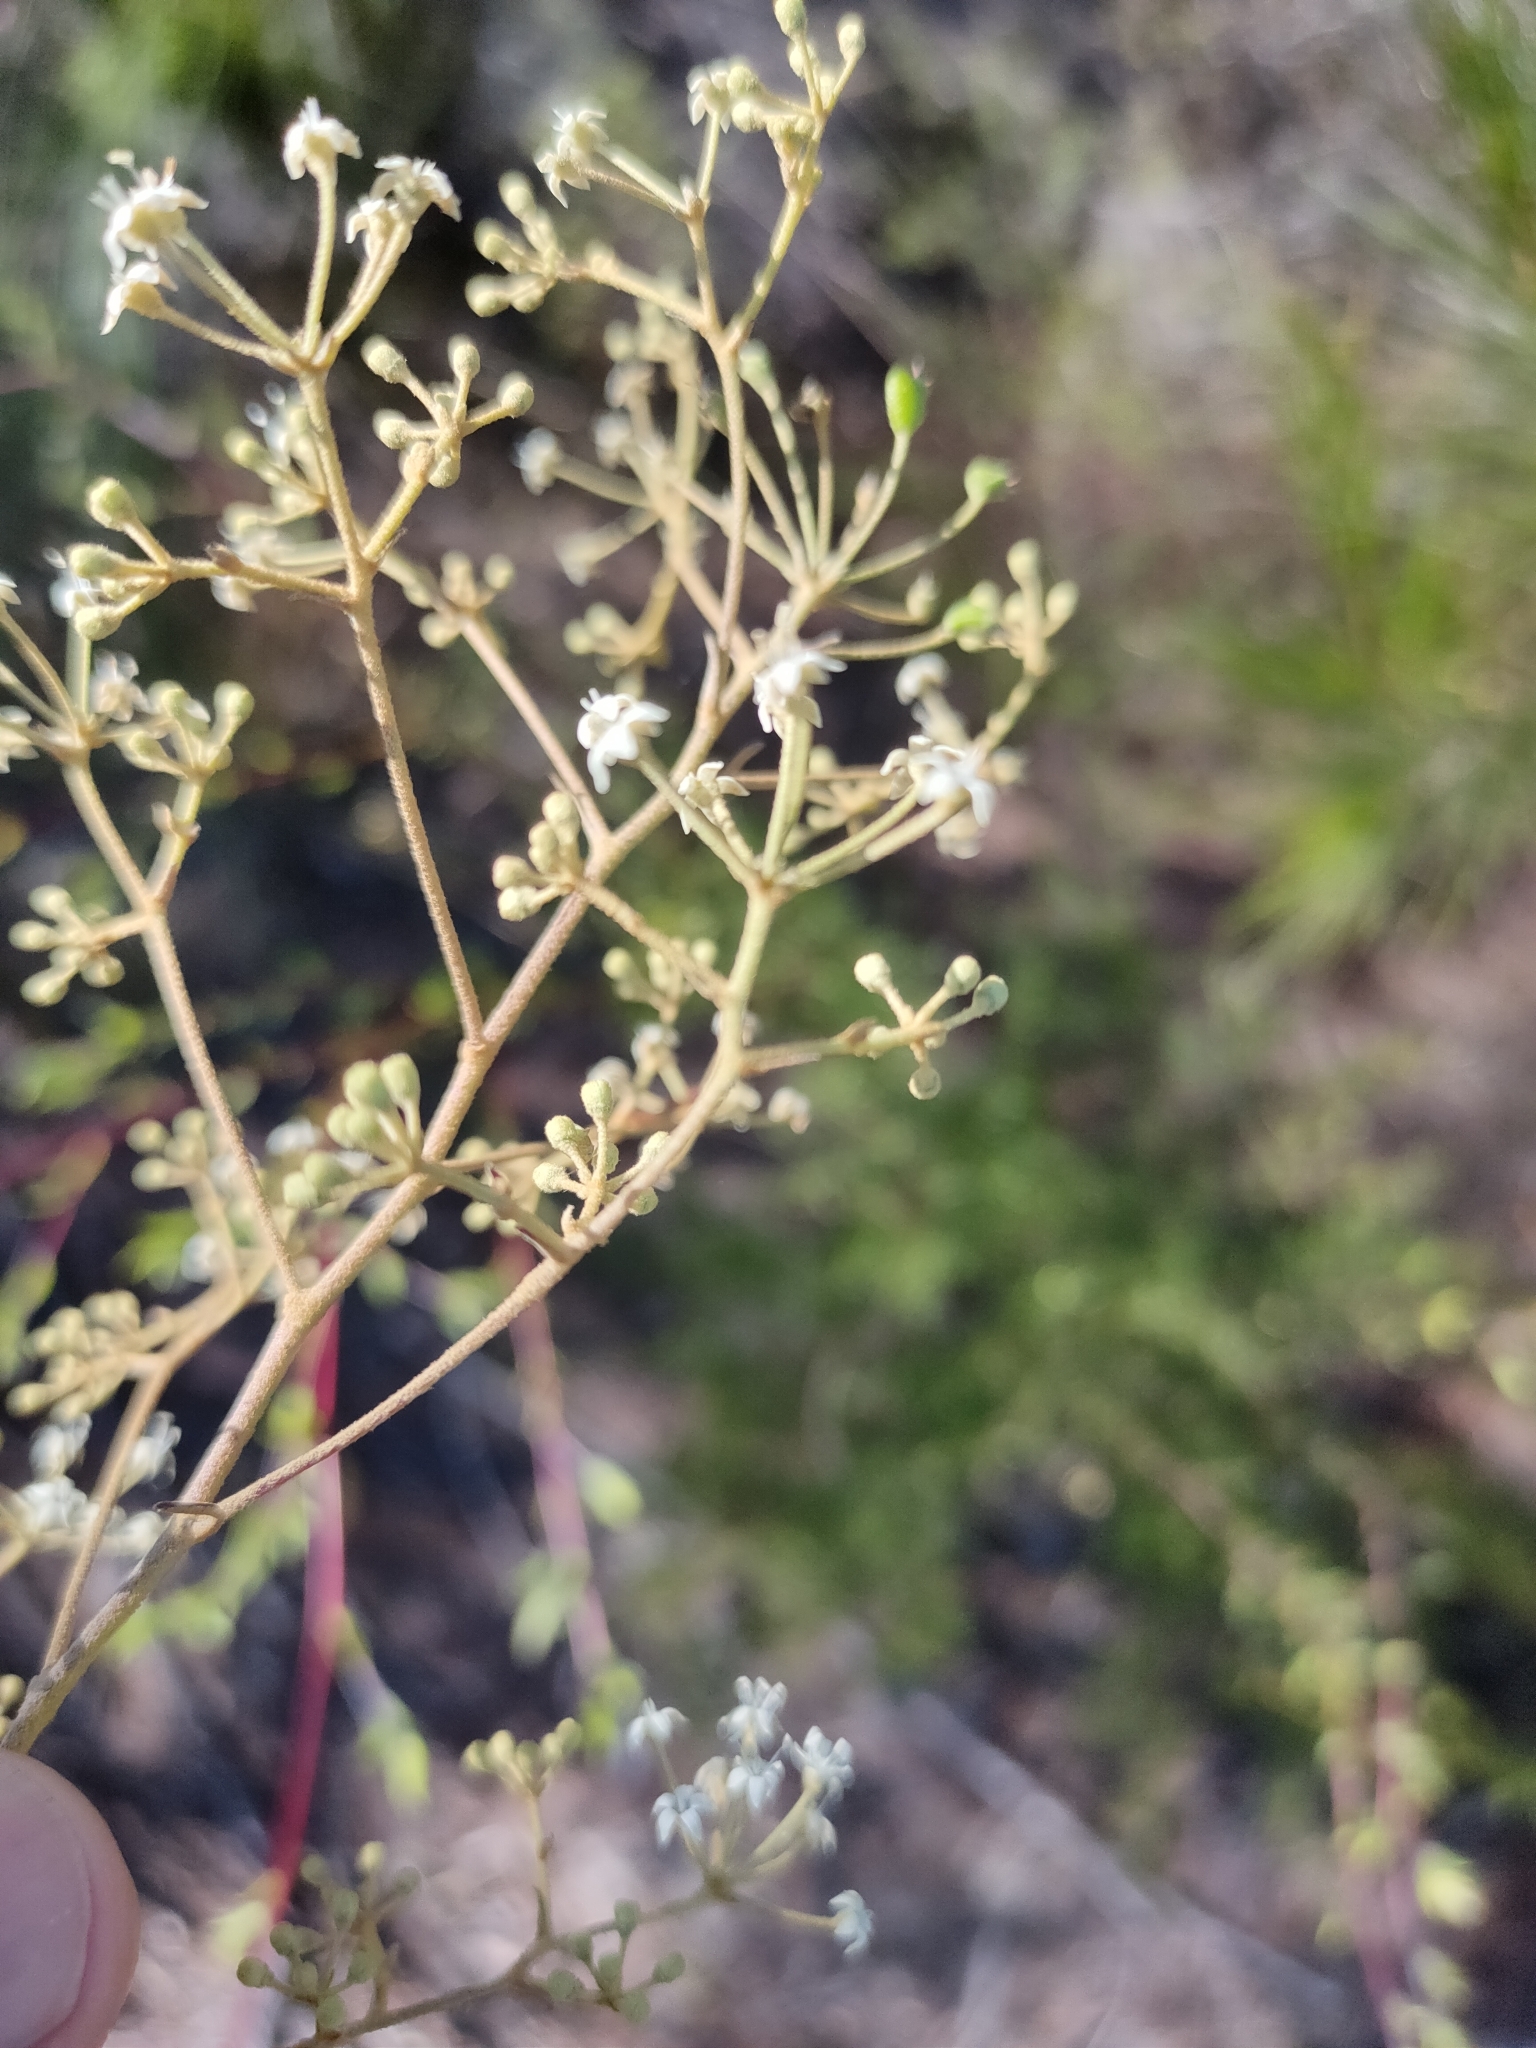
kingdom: Plantae
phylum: Tracheophyta
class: Magnoliopsida
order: Apiales
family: Araliaceae
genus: Astrotricha
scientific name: Astrotricha longifolia
